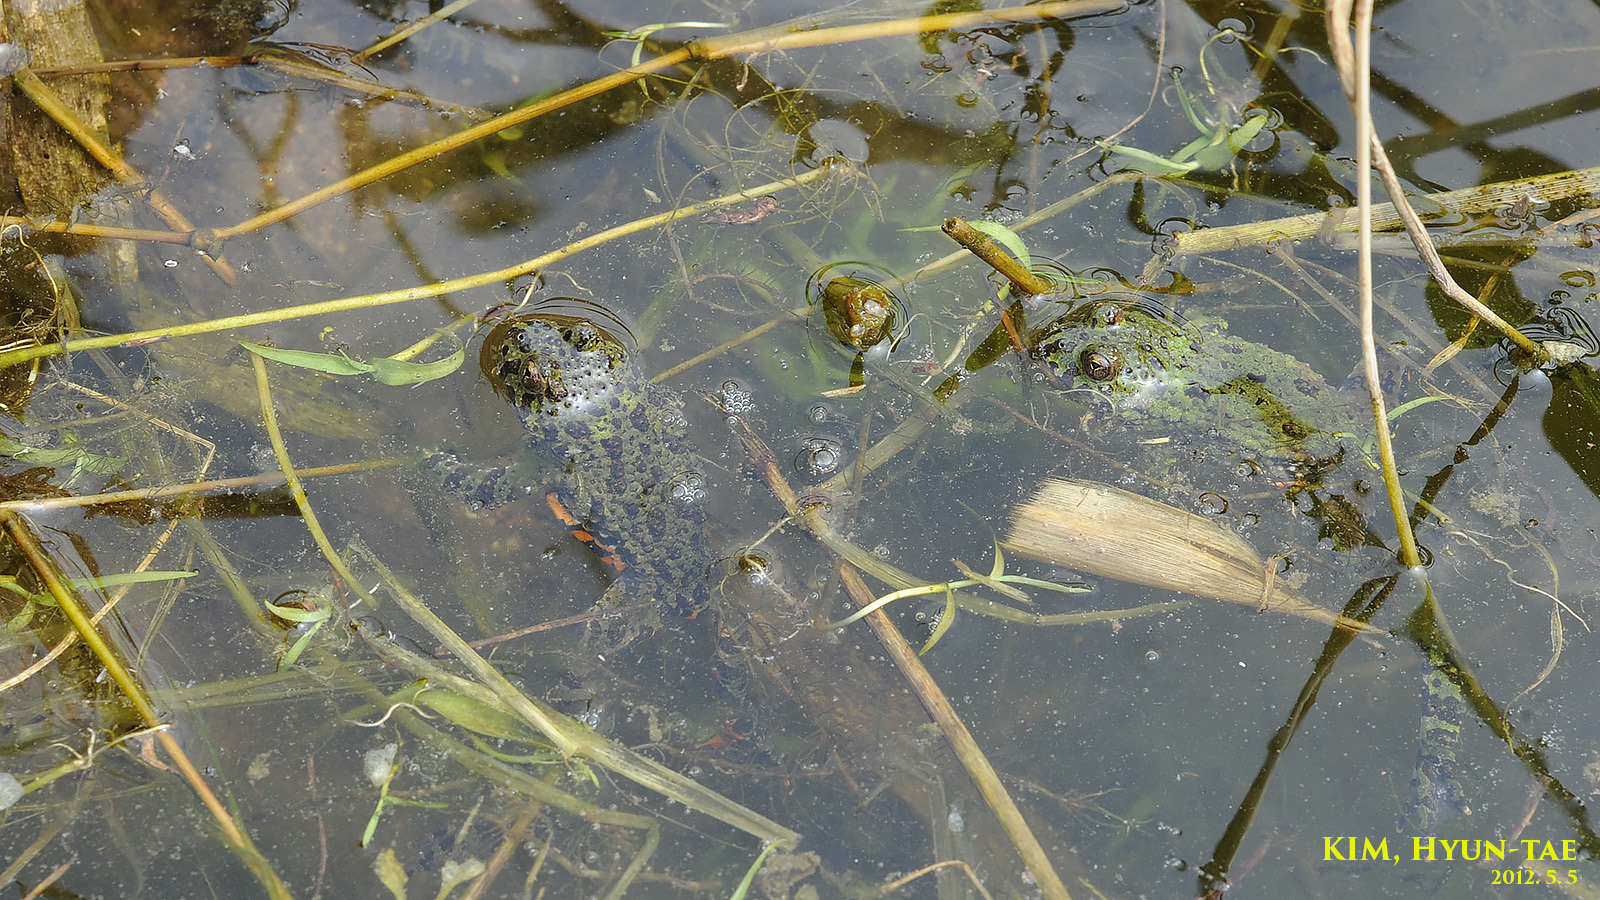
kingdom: Animalia
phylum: Chordata
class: Amphibia
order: Anura
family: Bombinatoridae
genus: Bombina
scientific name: Bombina orientalis
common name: Oriental firebelly toad
